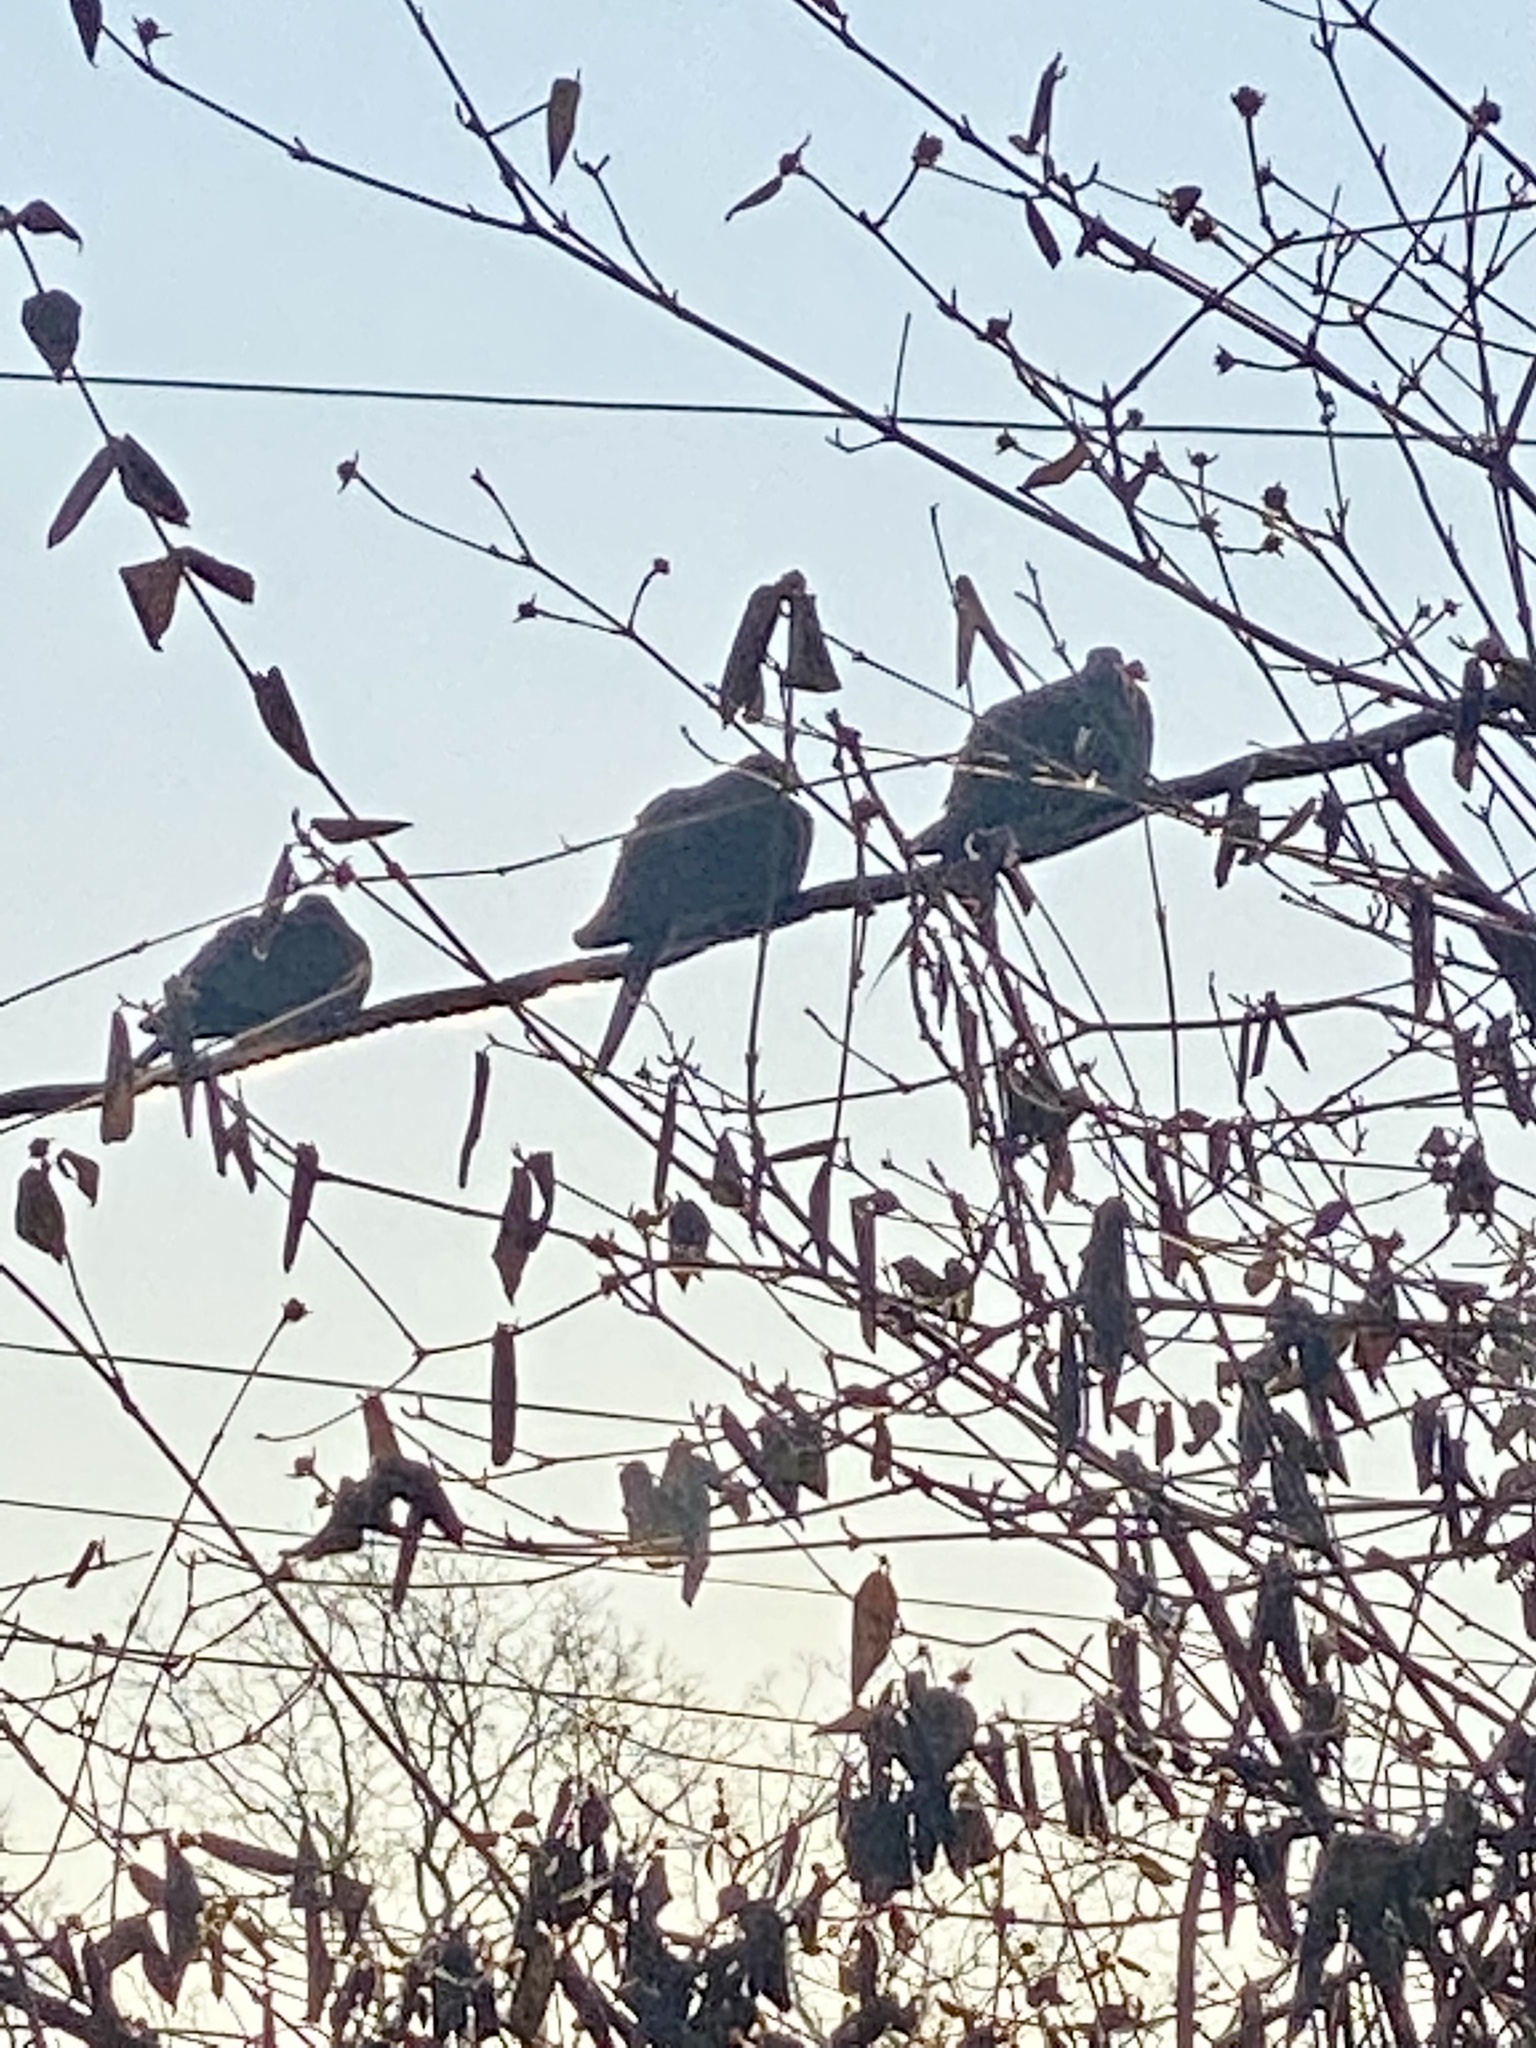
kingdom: Animalia
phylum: Chordata
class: Aves
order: Columbiformes
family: Columbidae
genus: Zenaida
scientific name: Zenaida macroura
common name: Mourning dove
